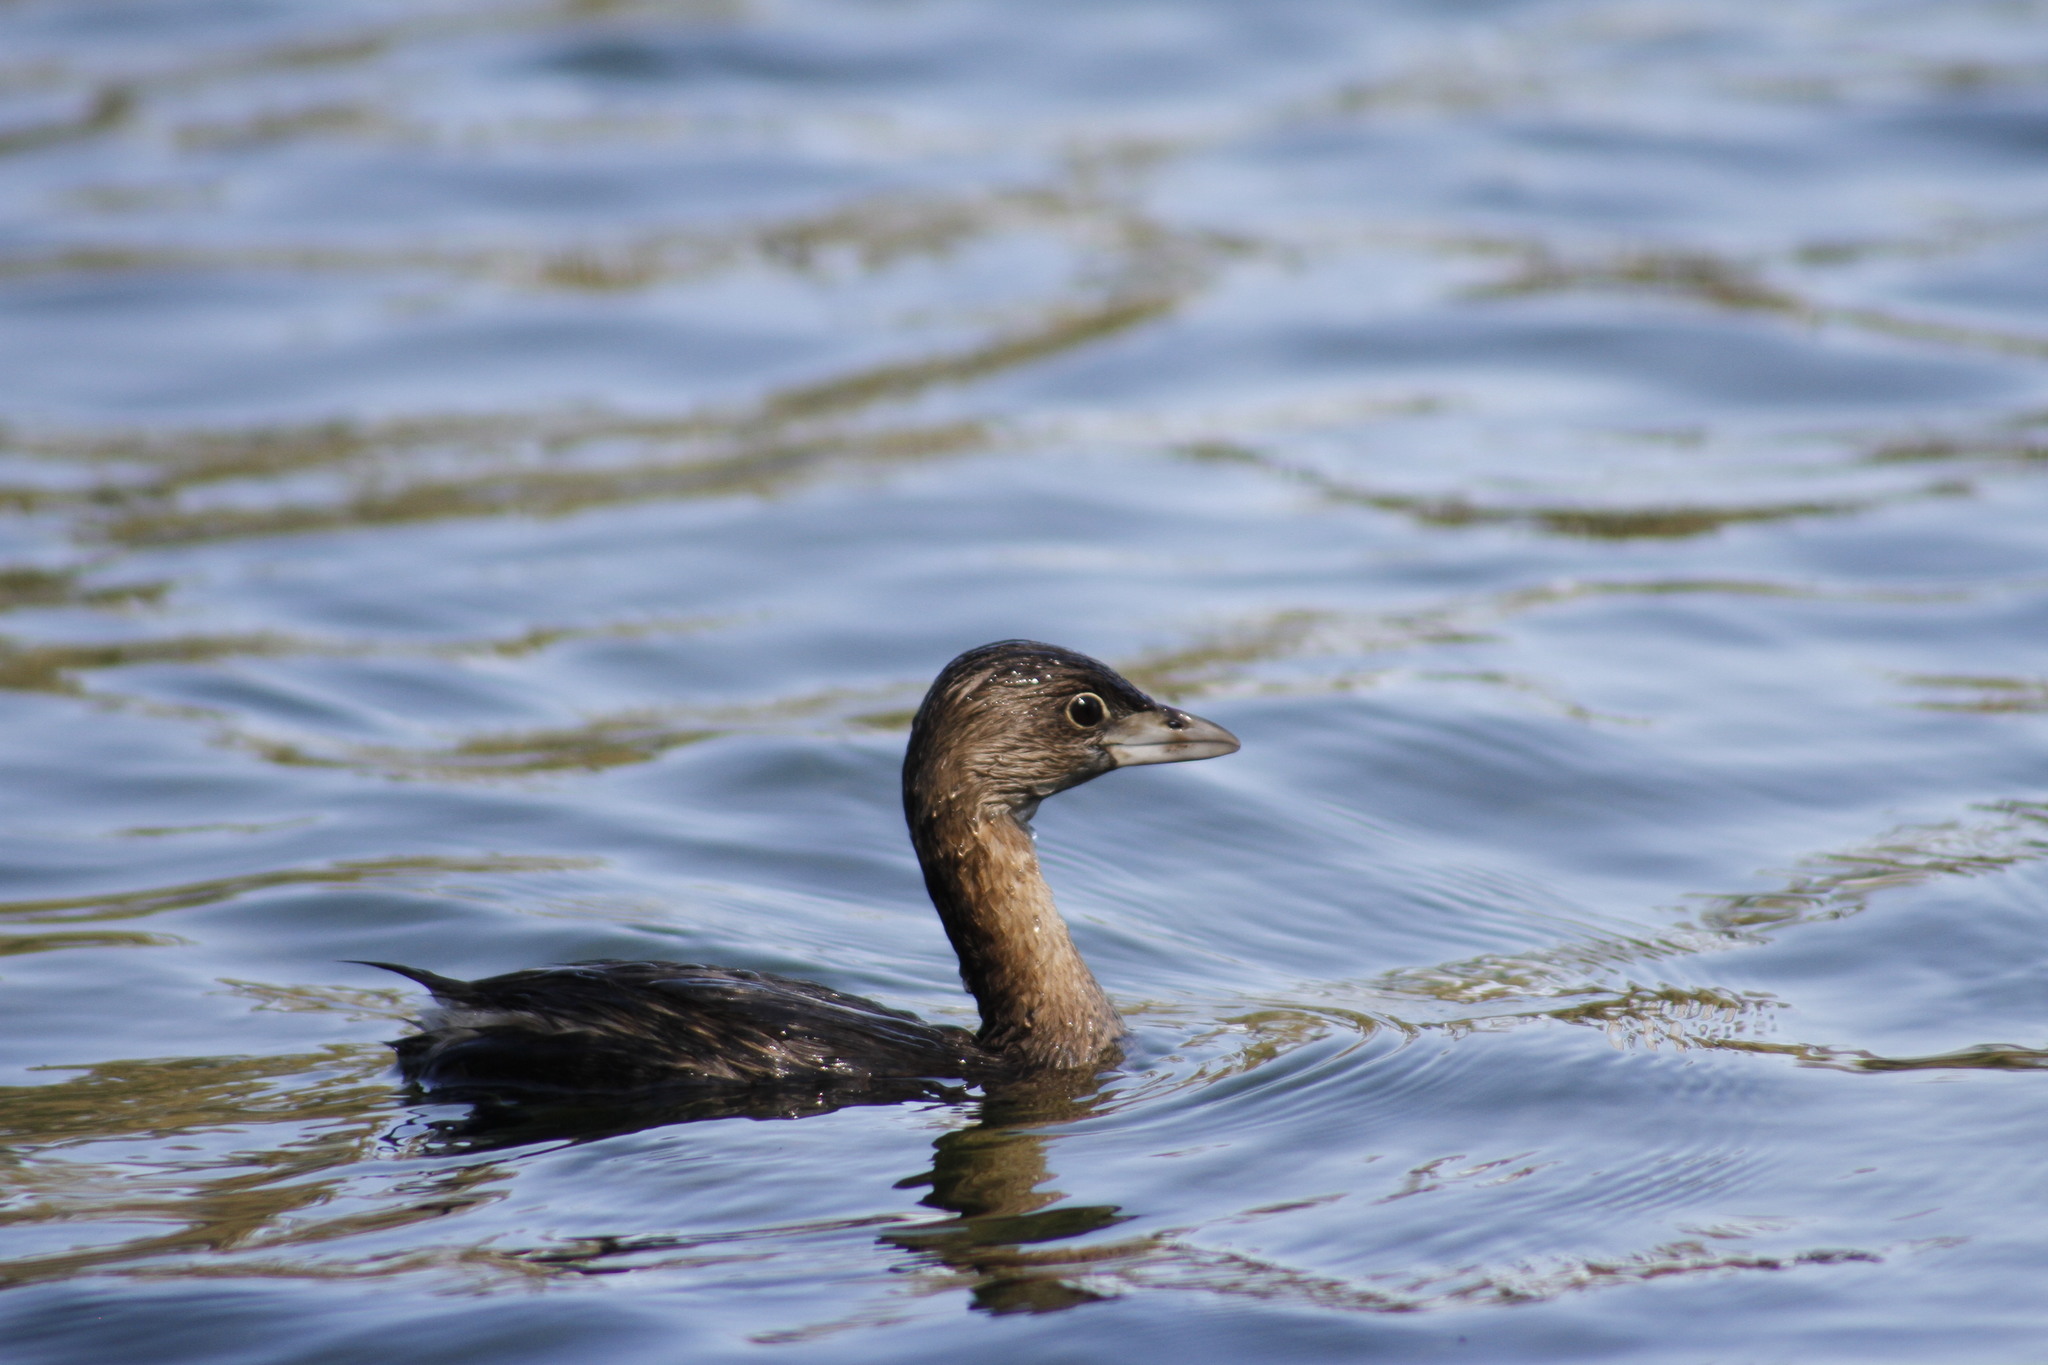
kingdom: Animalia
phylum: Chordata
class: Aves
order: Podicipediformes
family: Podicipedidae
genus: Podilymbus
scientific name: Podilymbus podiceps
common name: Pied-billed grebe
